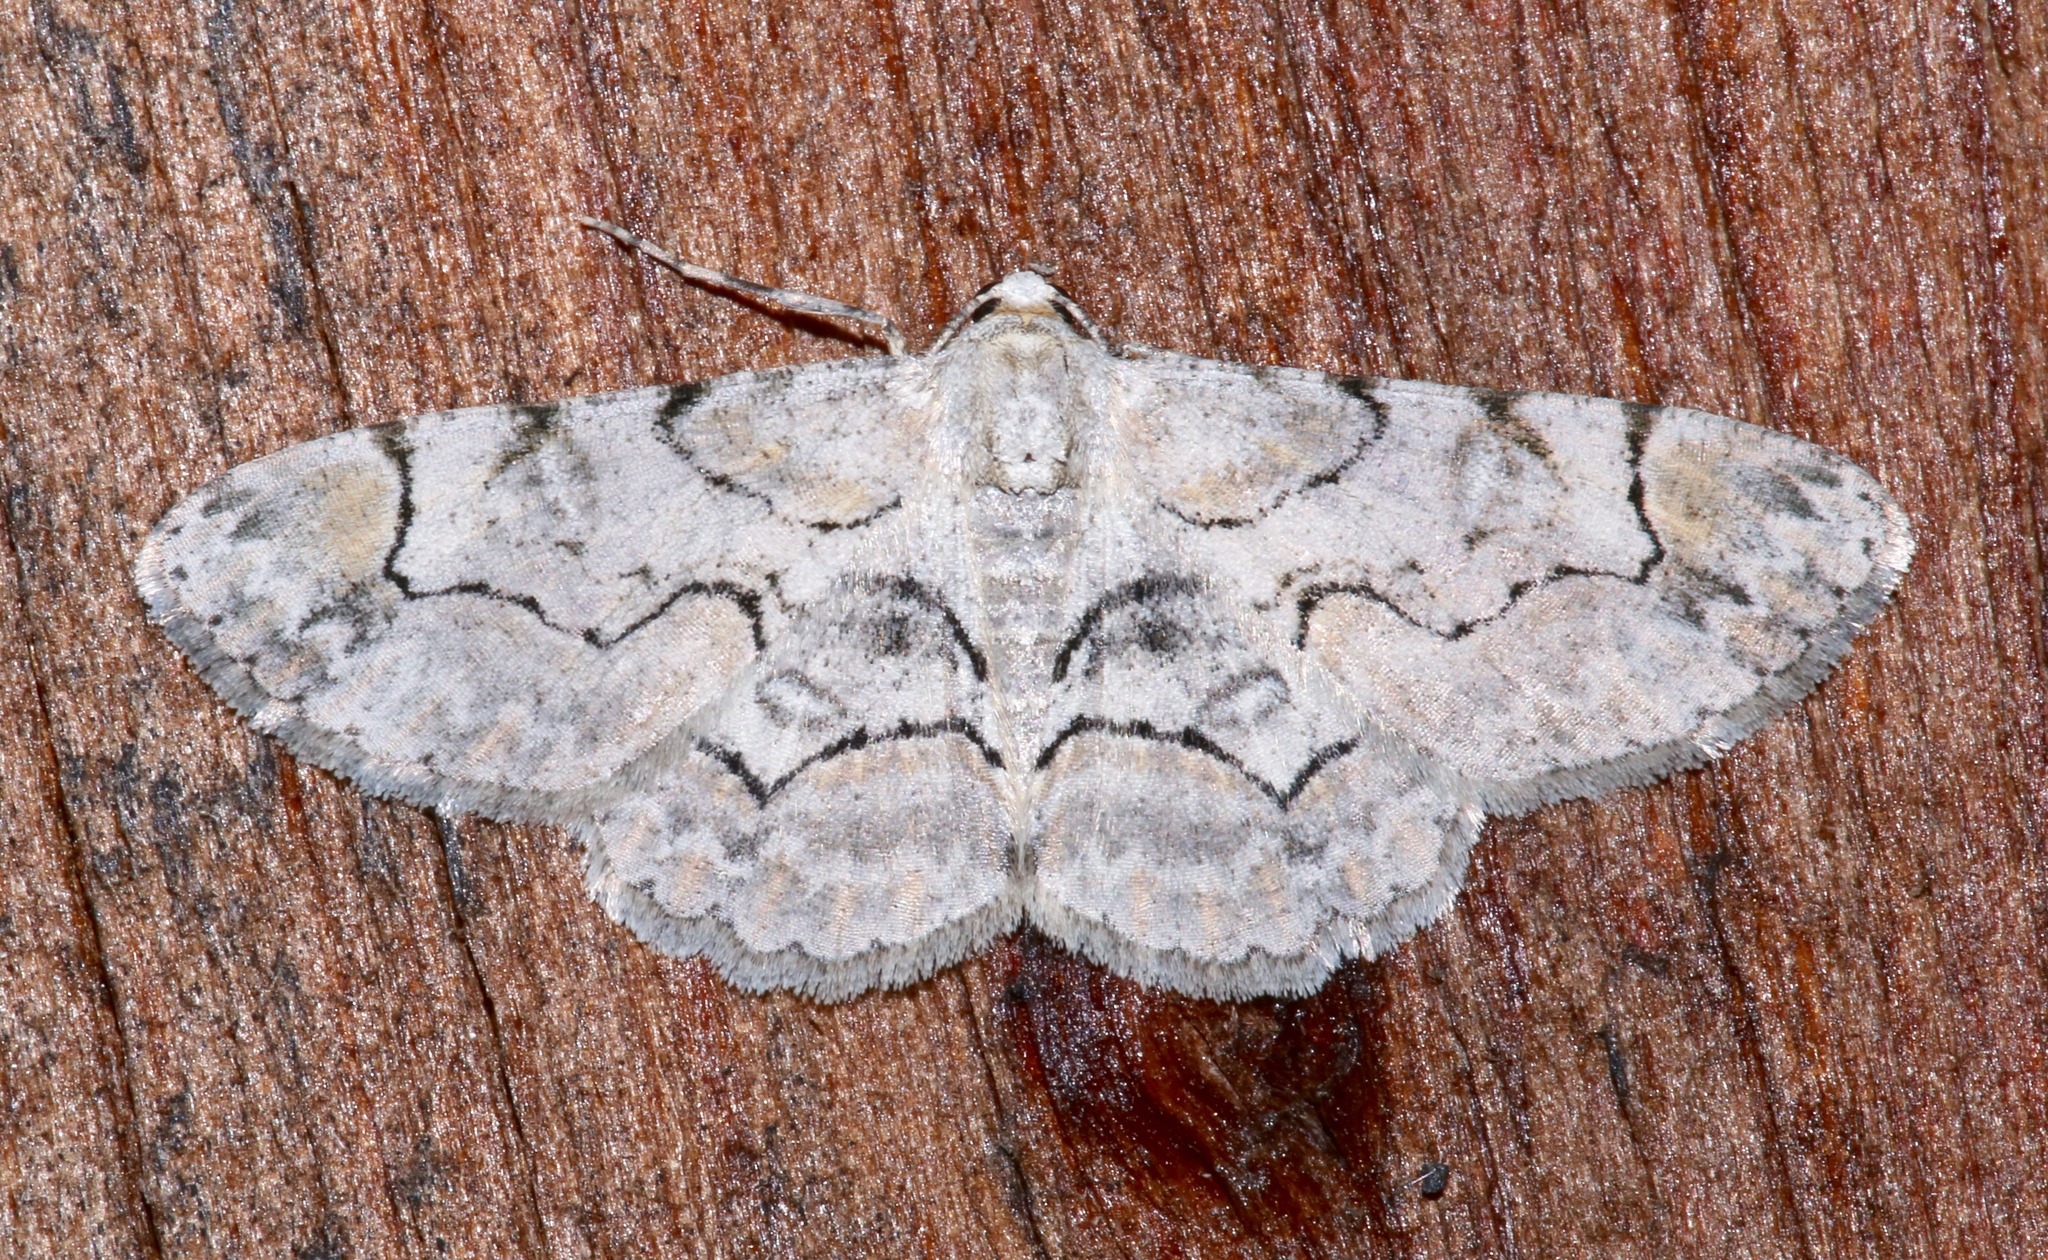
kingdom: Animalia
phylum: Arthropoda
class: Insecta
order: Lepidoptera
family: Geometridae
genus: Iridopsis
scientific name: Iridopsis larvaria
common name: Bent-line gray
